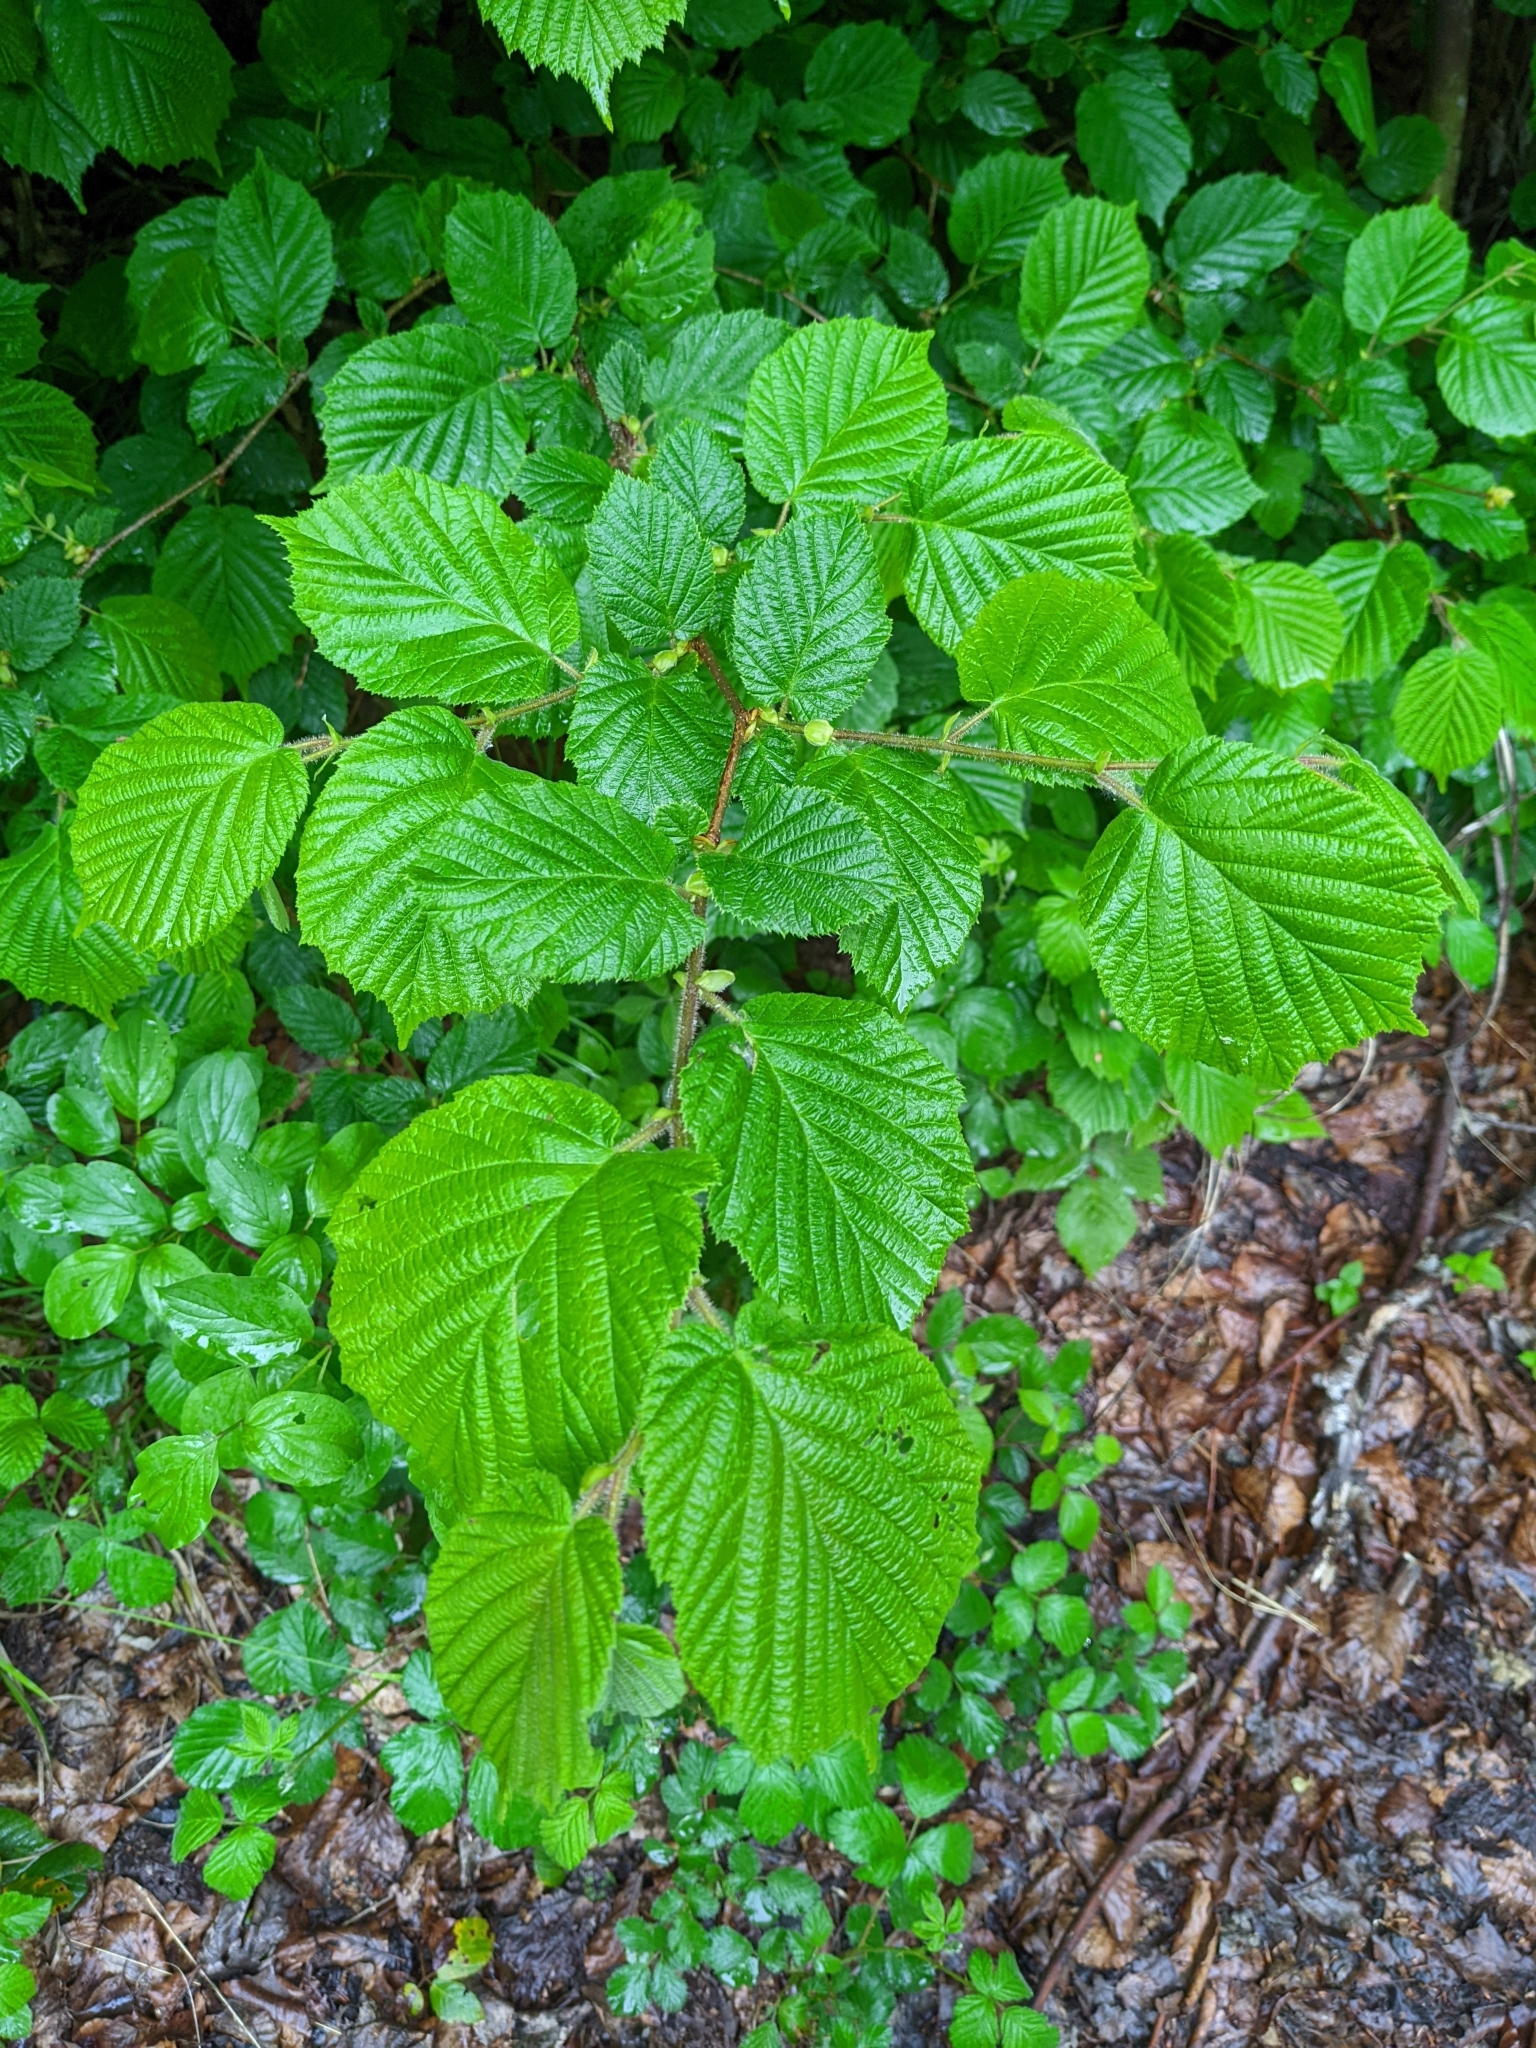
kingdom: Plantae
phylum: Tracheophyta
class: Magnoliopsida
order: Fagales
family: Betulaceae
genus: Corylus
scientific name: Corylus avellana
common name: European hazel
